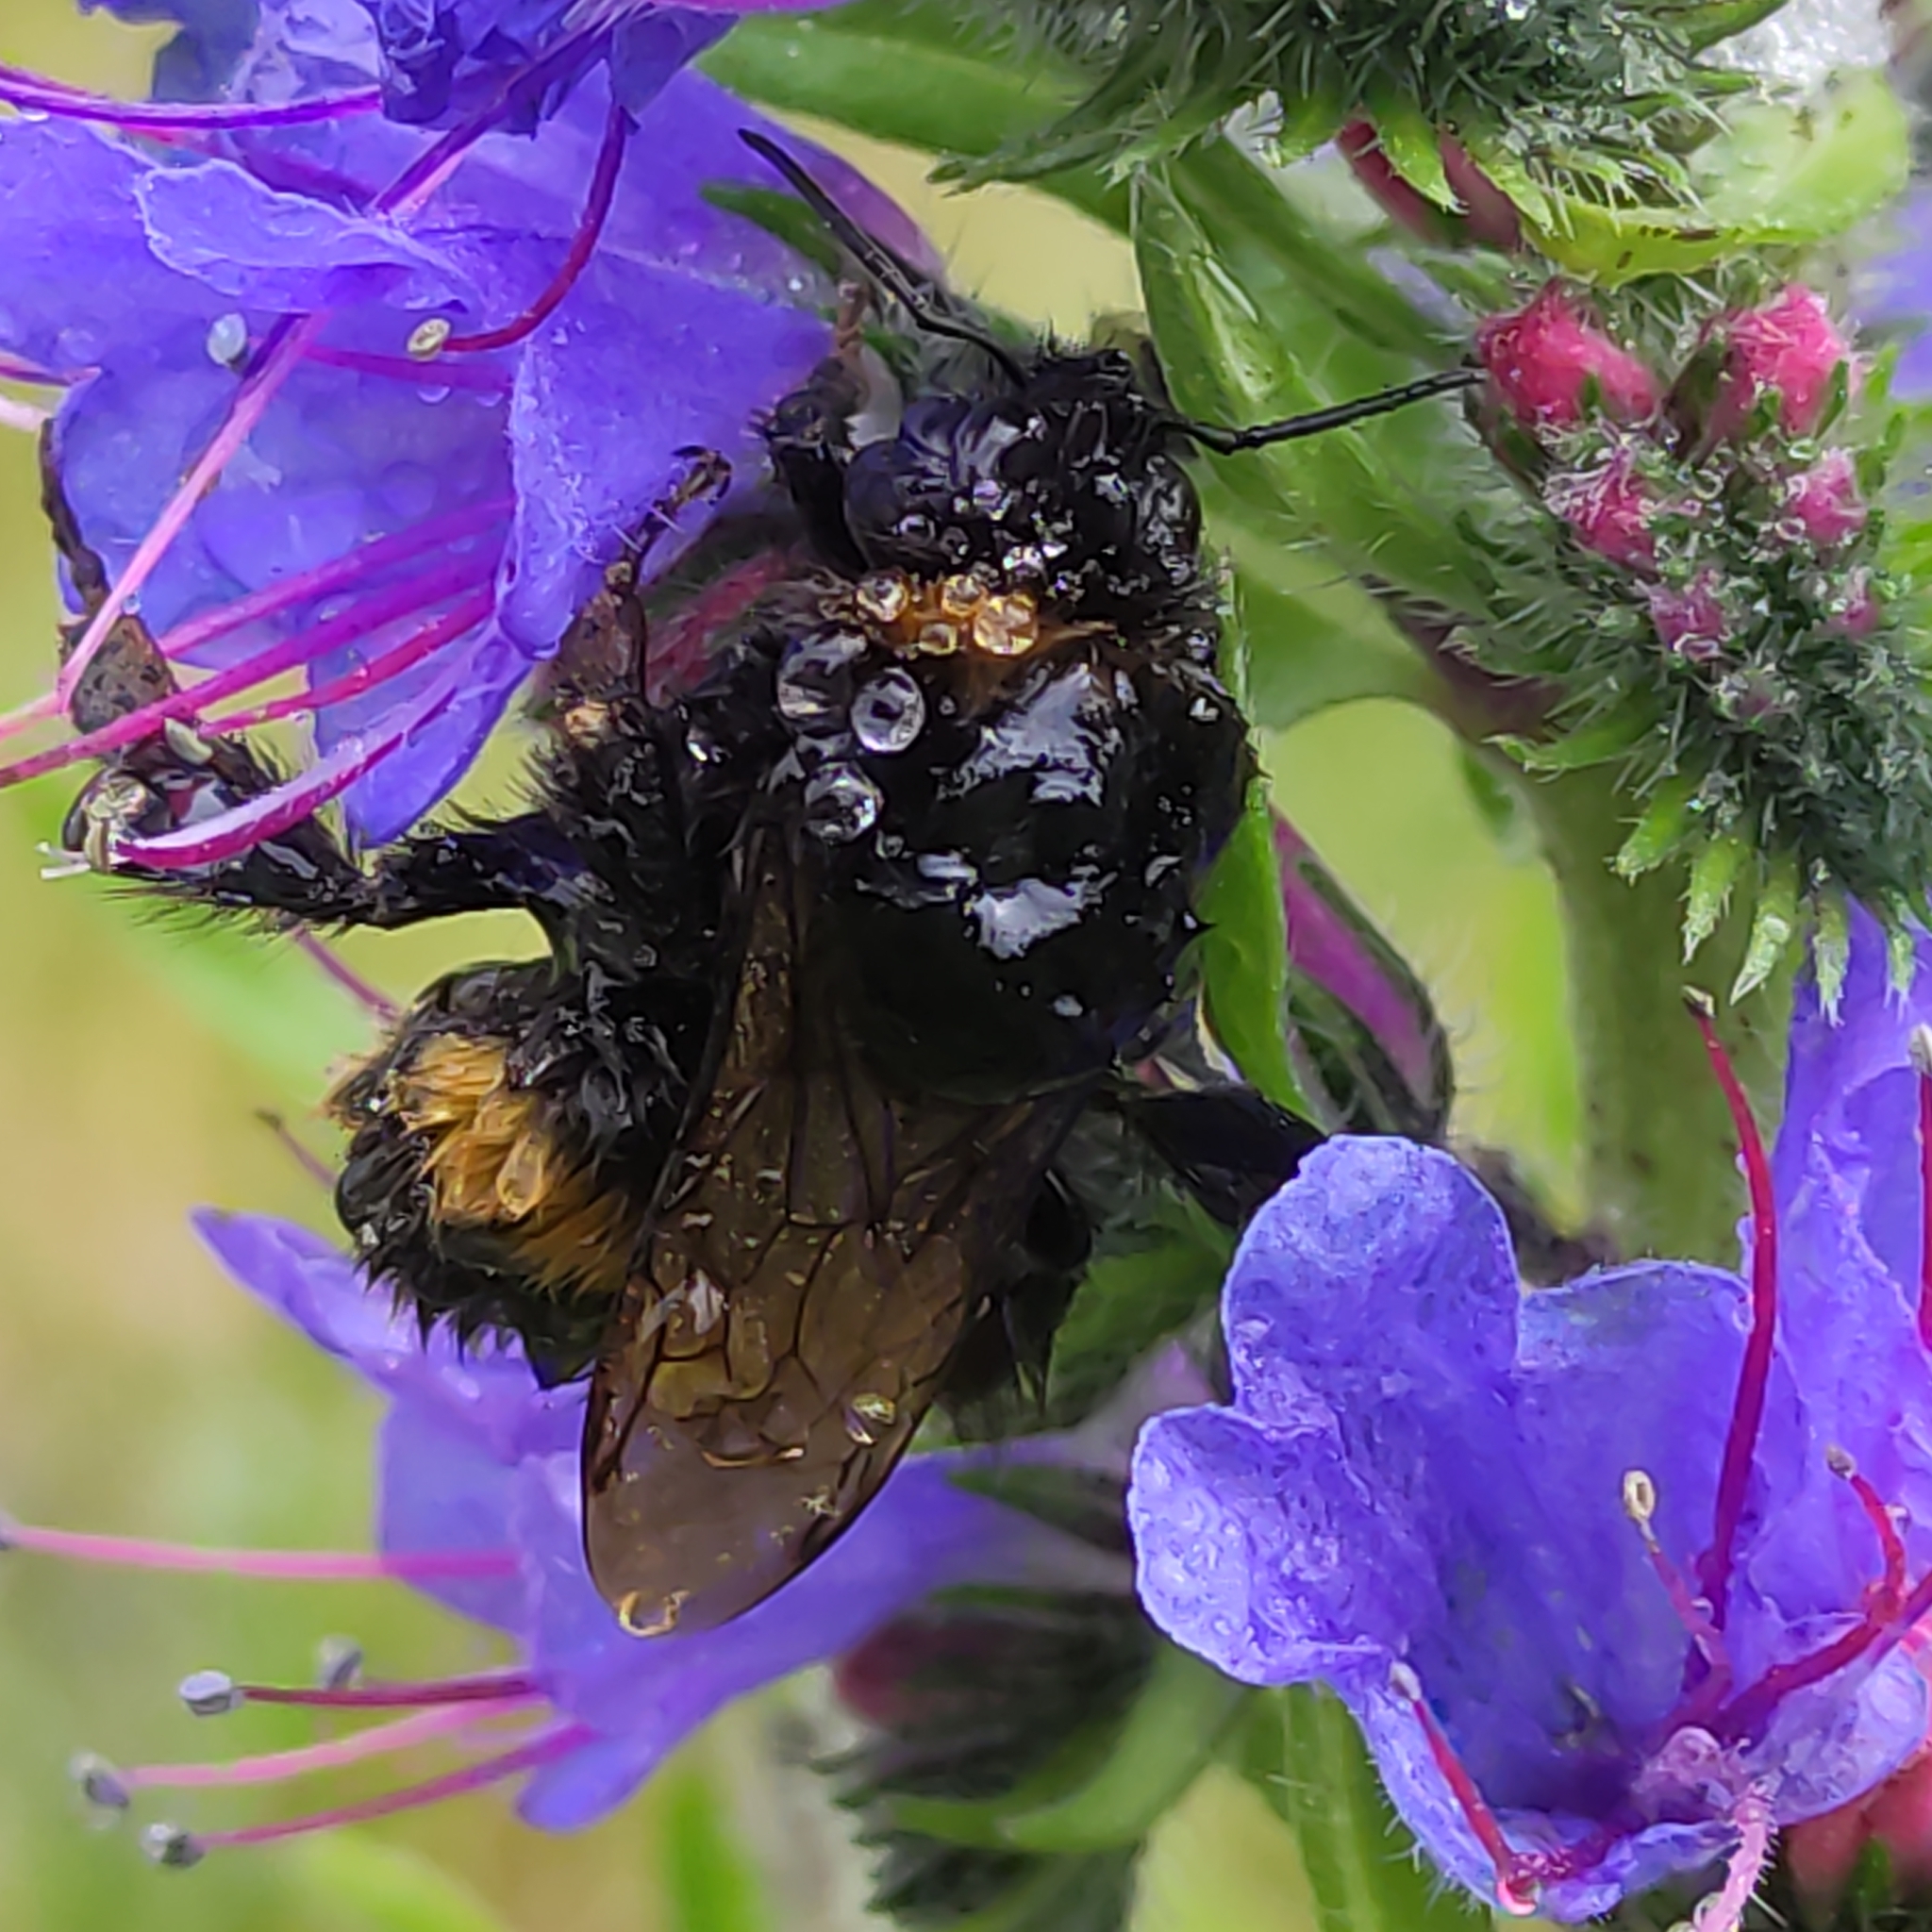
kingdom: Animalia
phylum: Arthropoda
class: Insecta
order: Hymenoptera
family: Apidae
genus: Bombus
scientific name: Bombus terrestris
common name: Buff-tailed bumblebee
